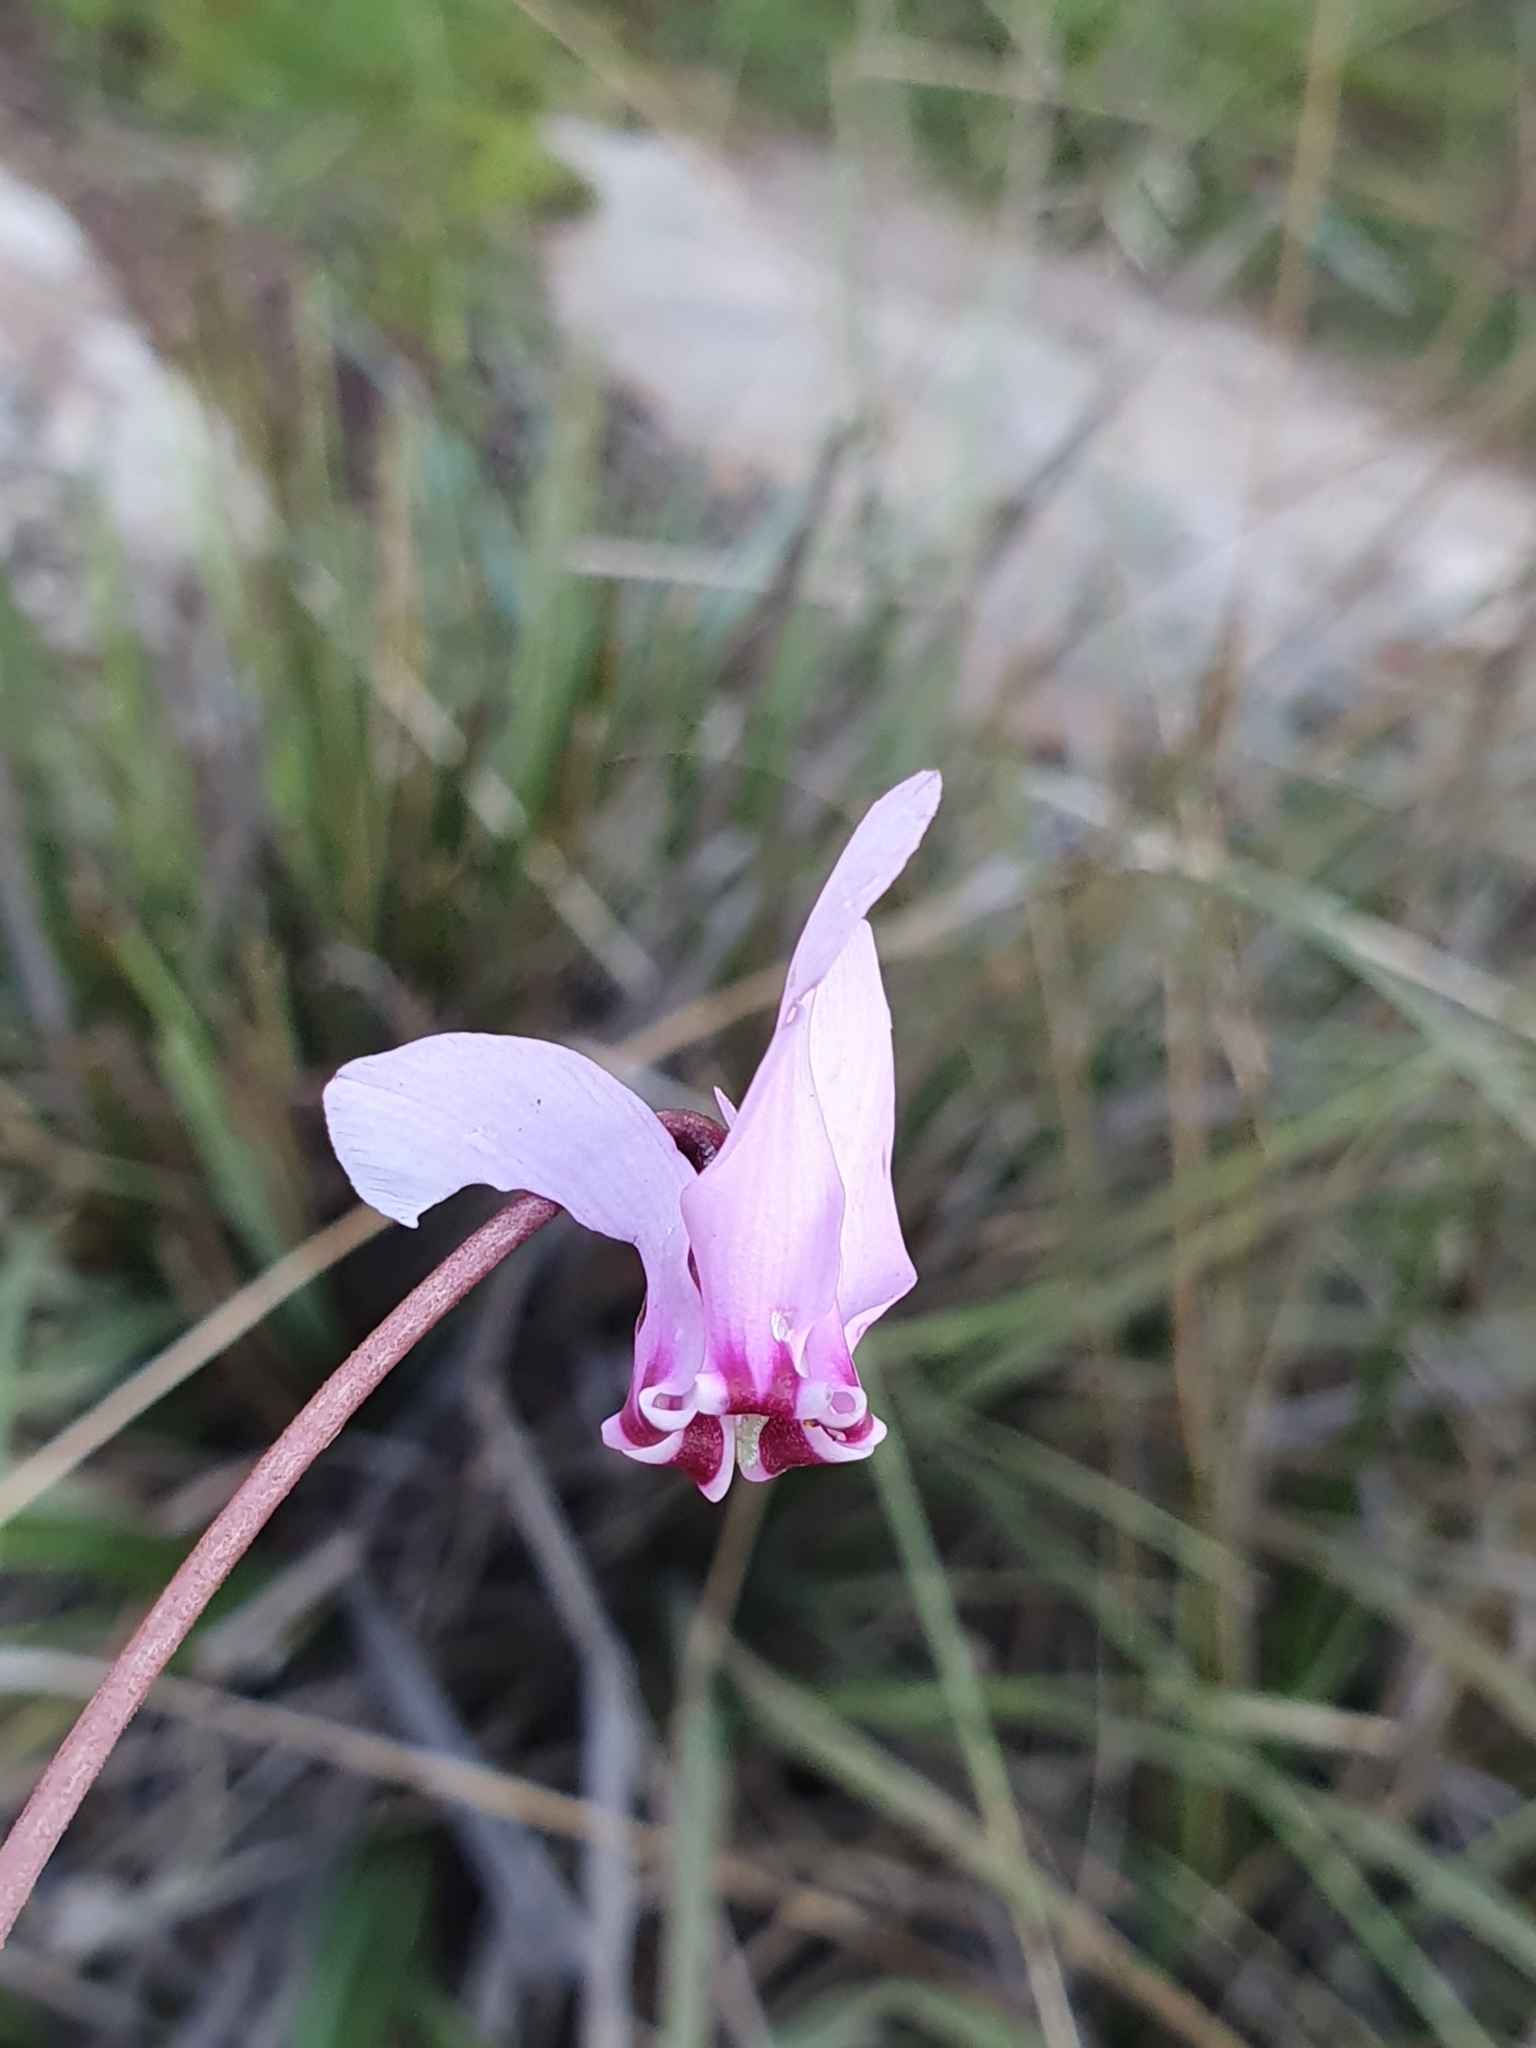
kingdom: Plantae
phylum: Tracheophyta
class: Magnoliopsida
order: Ericales
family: Primulaceae
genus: Cyclamen
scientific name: Cyclamen africanum
